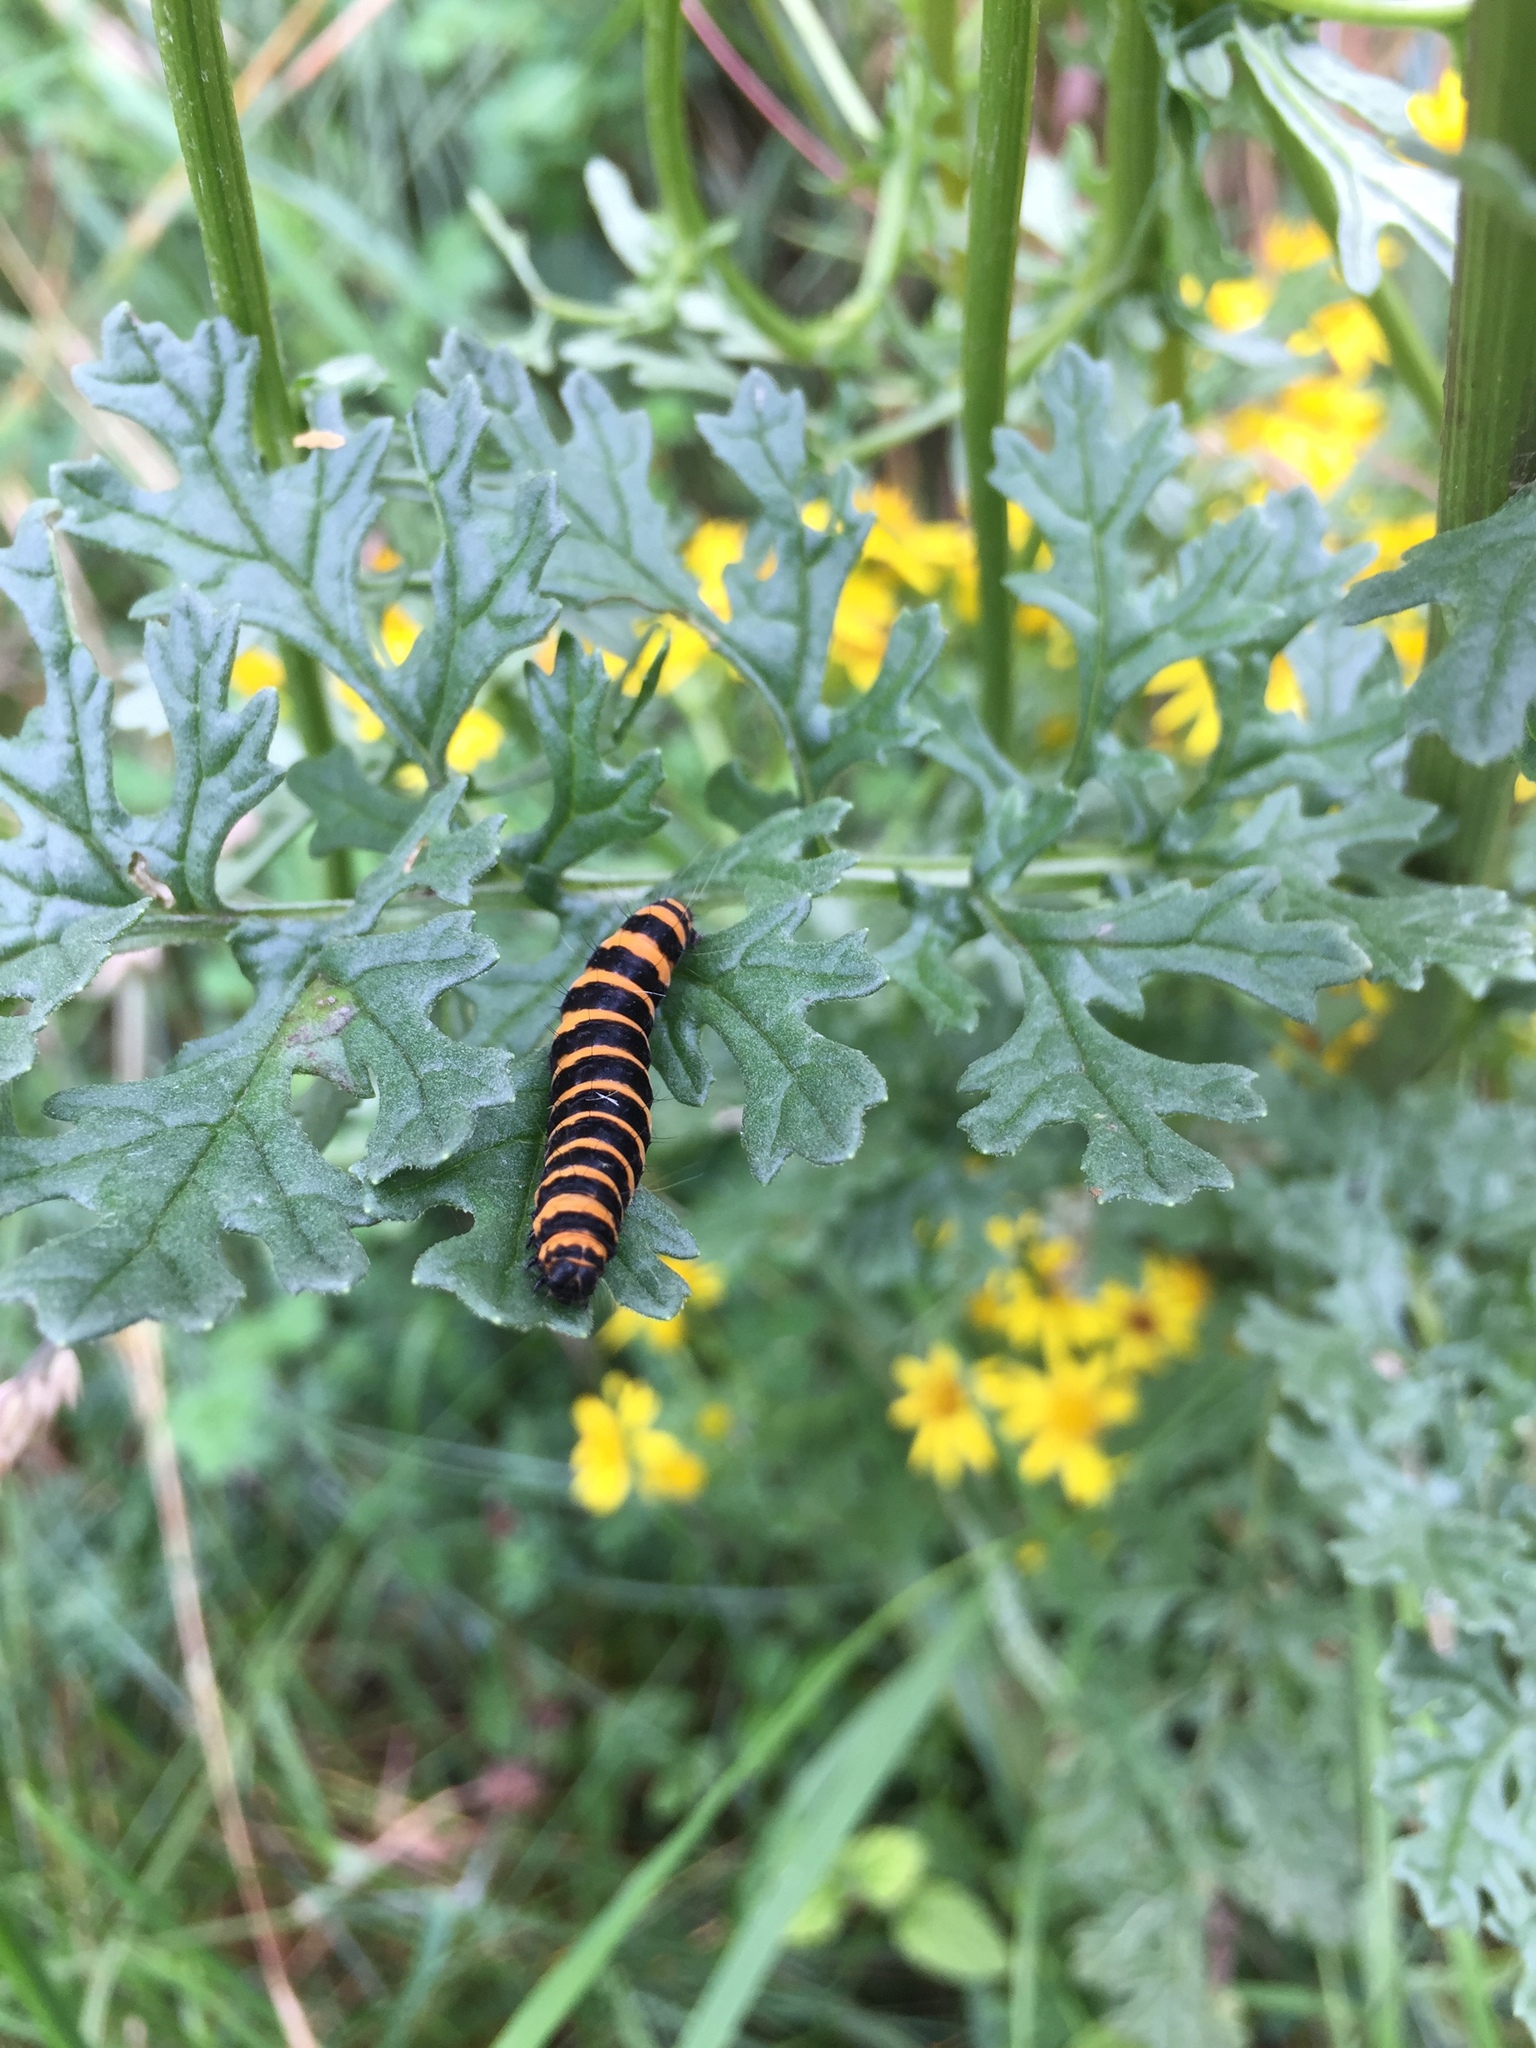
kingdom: Animalia
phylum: Arthropoda
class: Insecta
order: Lepidoptera
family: Erebidae
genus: Tyria
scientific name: Tyria jacobaeae
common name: Cinnabar
